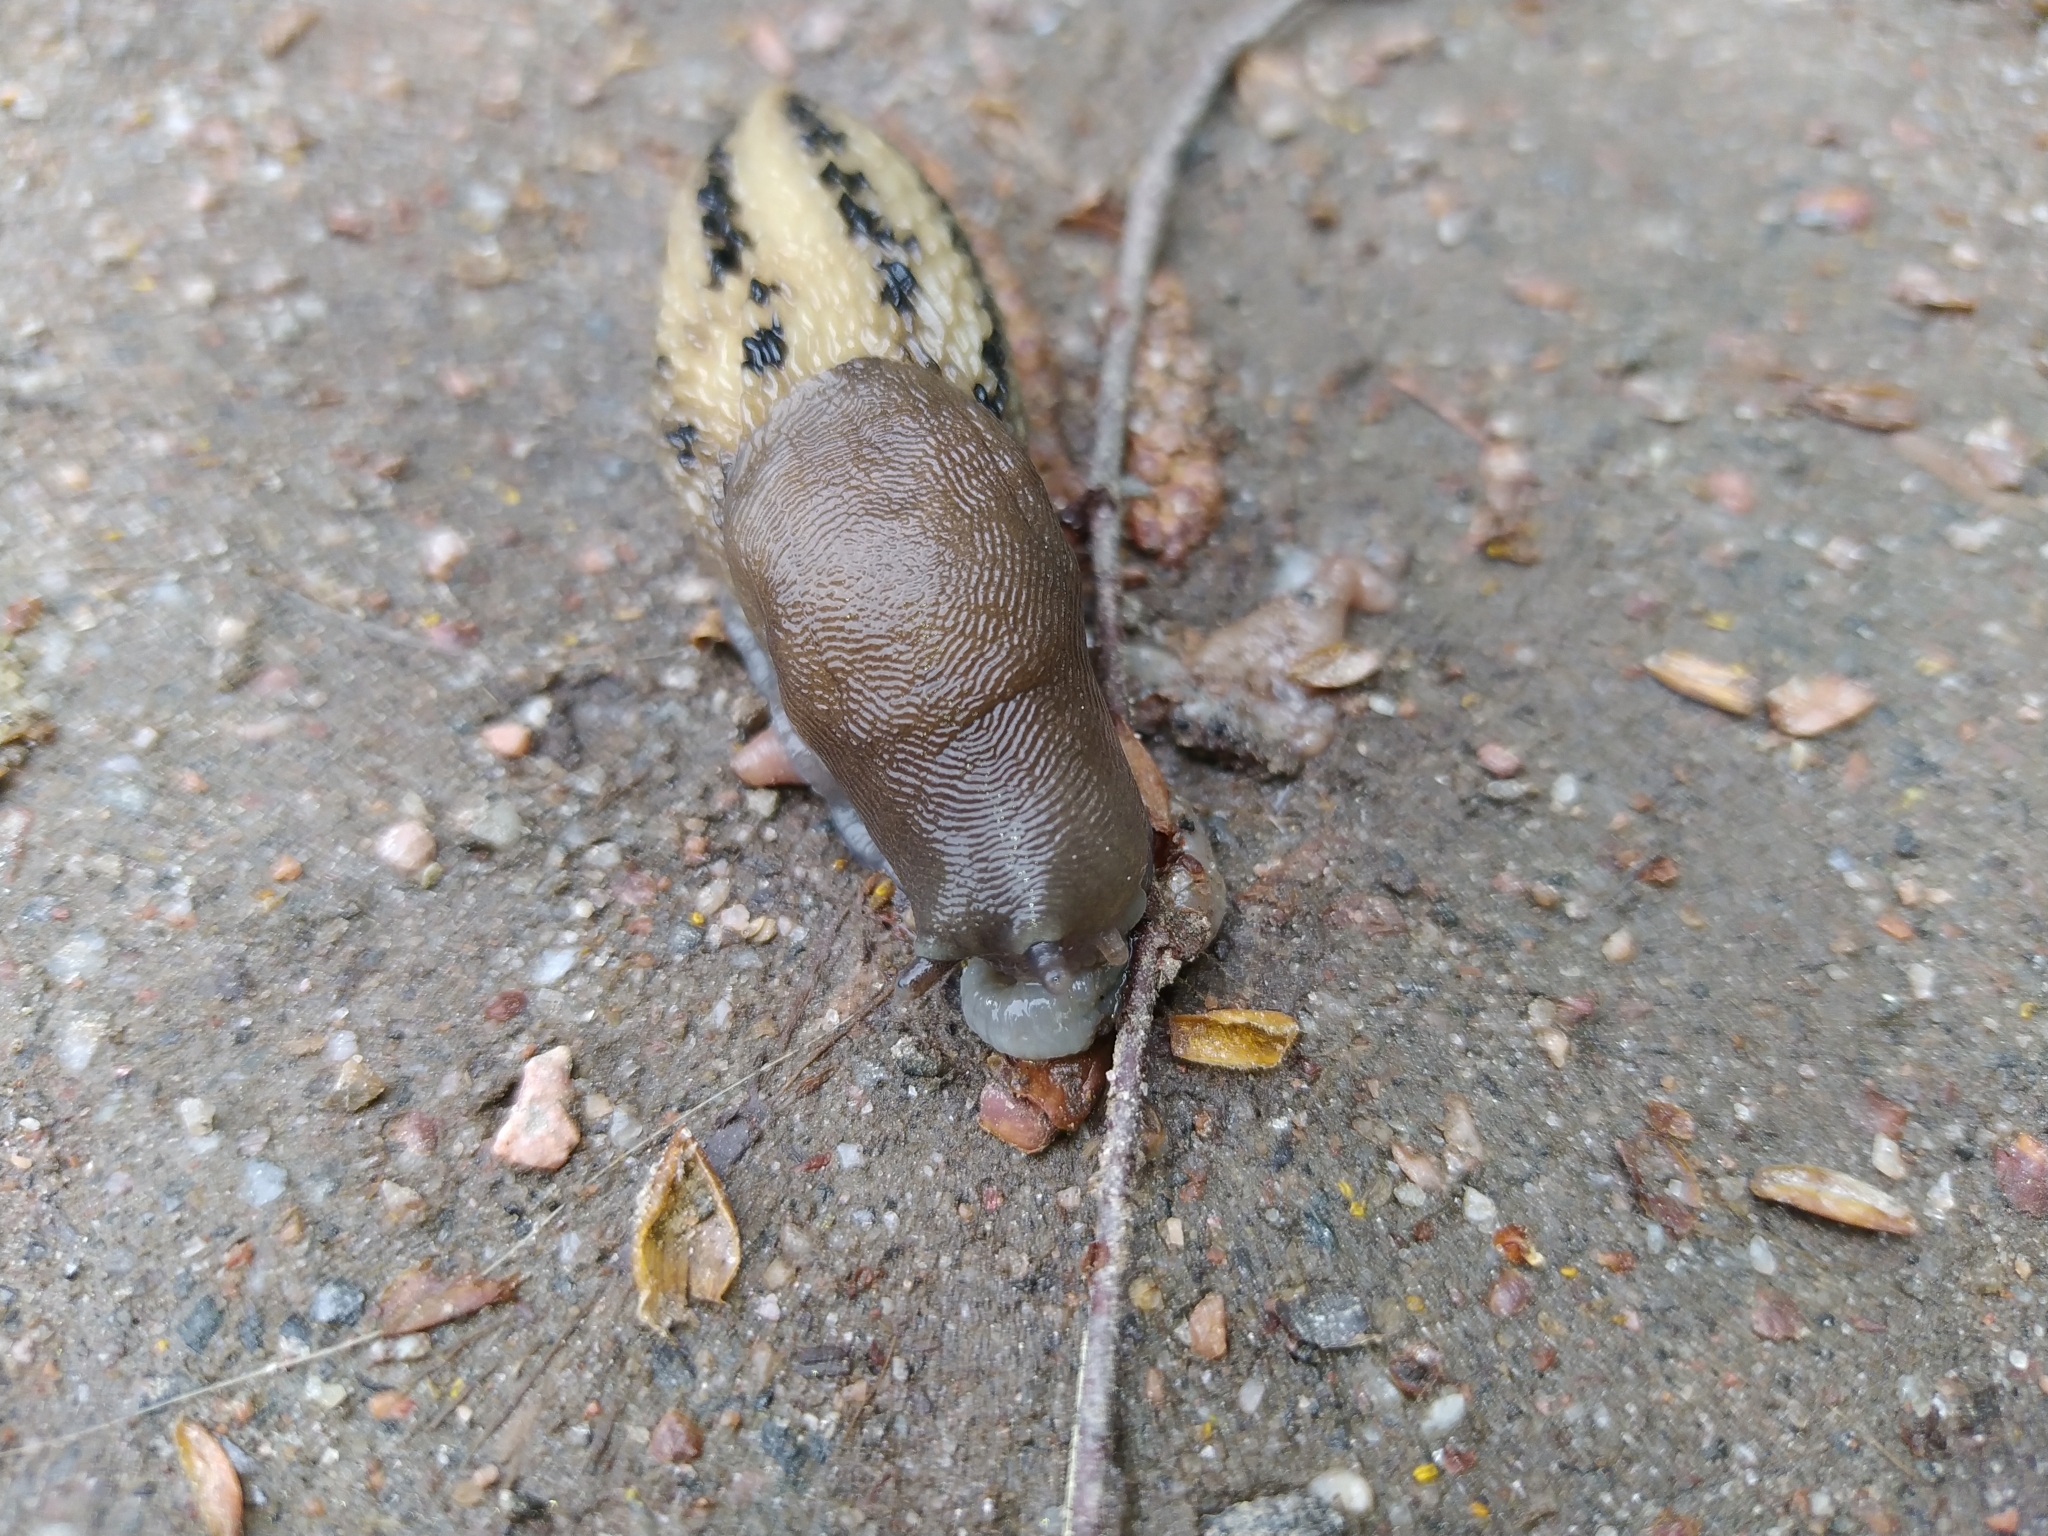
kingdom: Animalia
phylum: Mollusca
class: Gastropoda
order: Stylommatophora
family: Limacidae
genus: Limax
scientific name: Limax cinereoniger
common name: Ash-black slug
